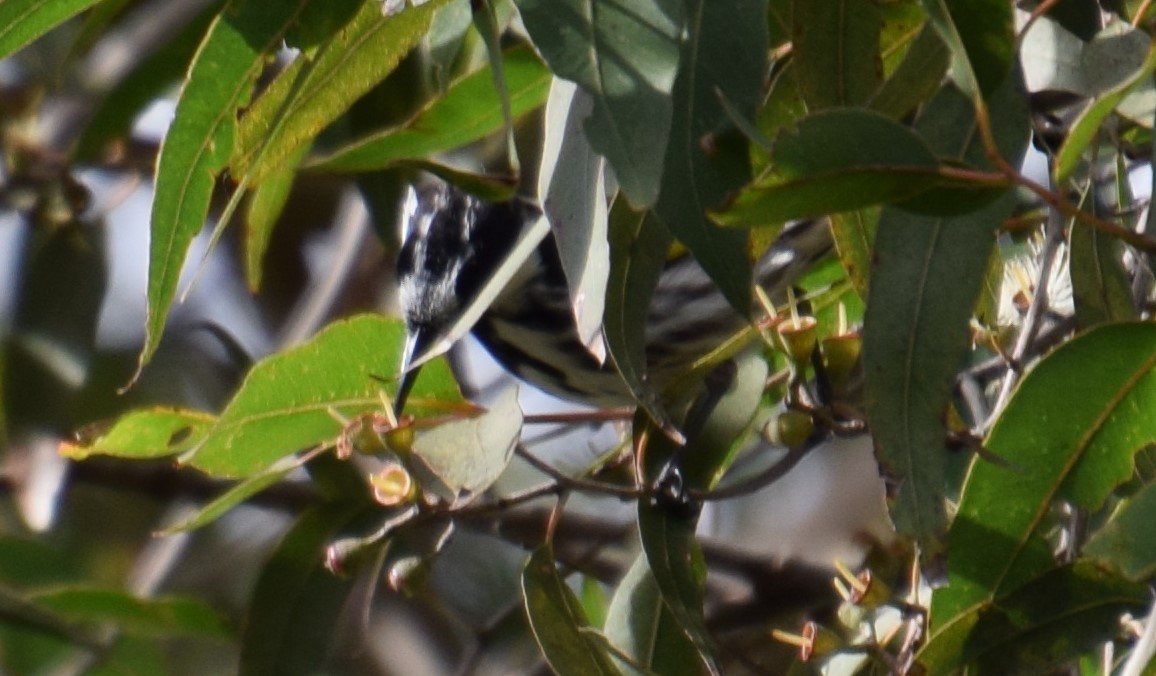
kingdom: Animalia
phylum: Chordata
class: Aves
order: Passeriformes
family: Meliphagidae
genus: Phylidonyris
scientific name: Phylidonyris novaehollandiae
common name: New holland honeyeater
